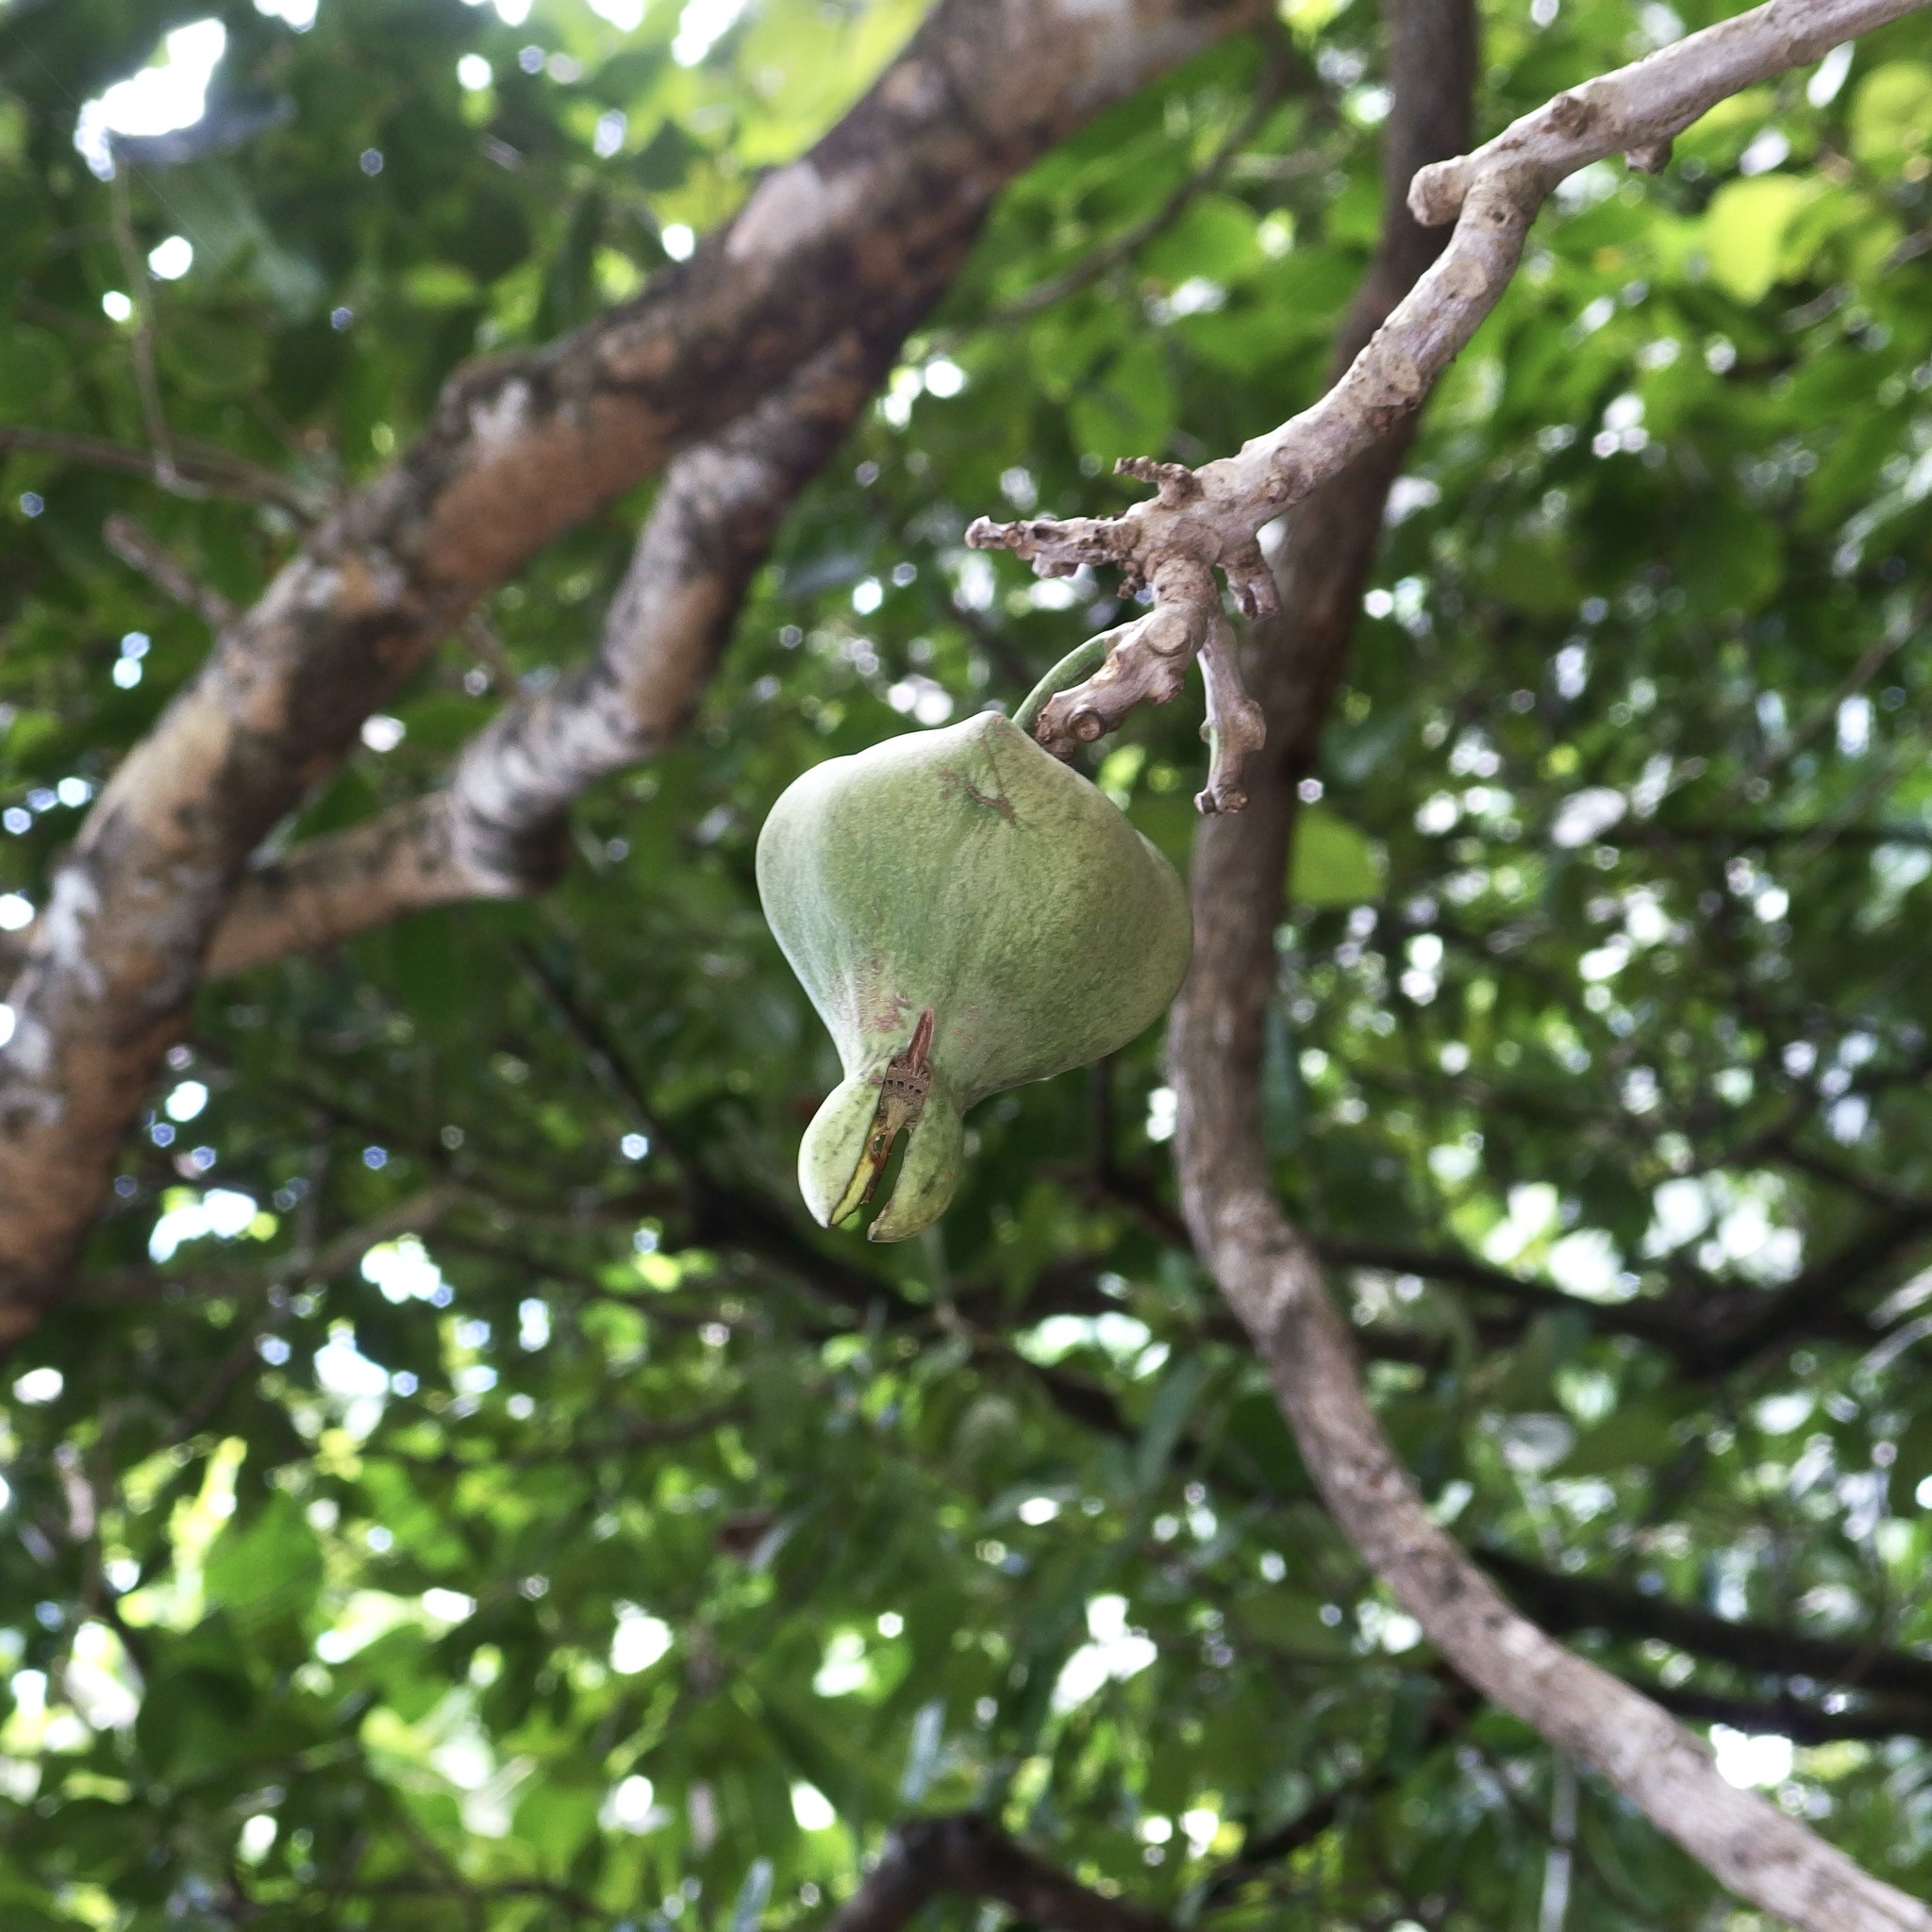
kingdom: Plantae
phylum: Tracheophyta
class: Magnoliopsida
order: Ericales
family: Lecythidaceae
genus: Barringtonia
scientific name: Barringtonia asiatica
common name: Mango-pine
